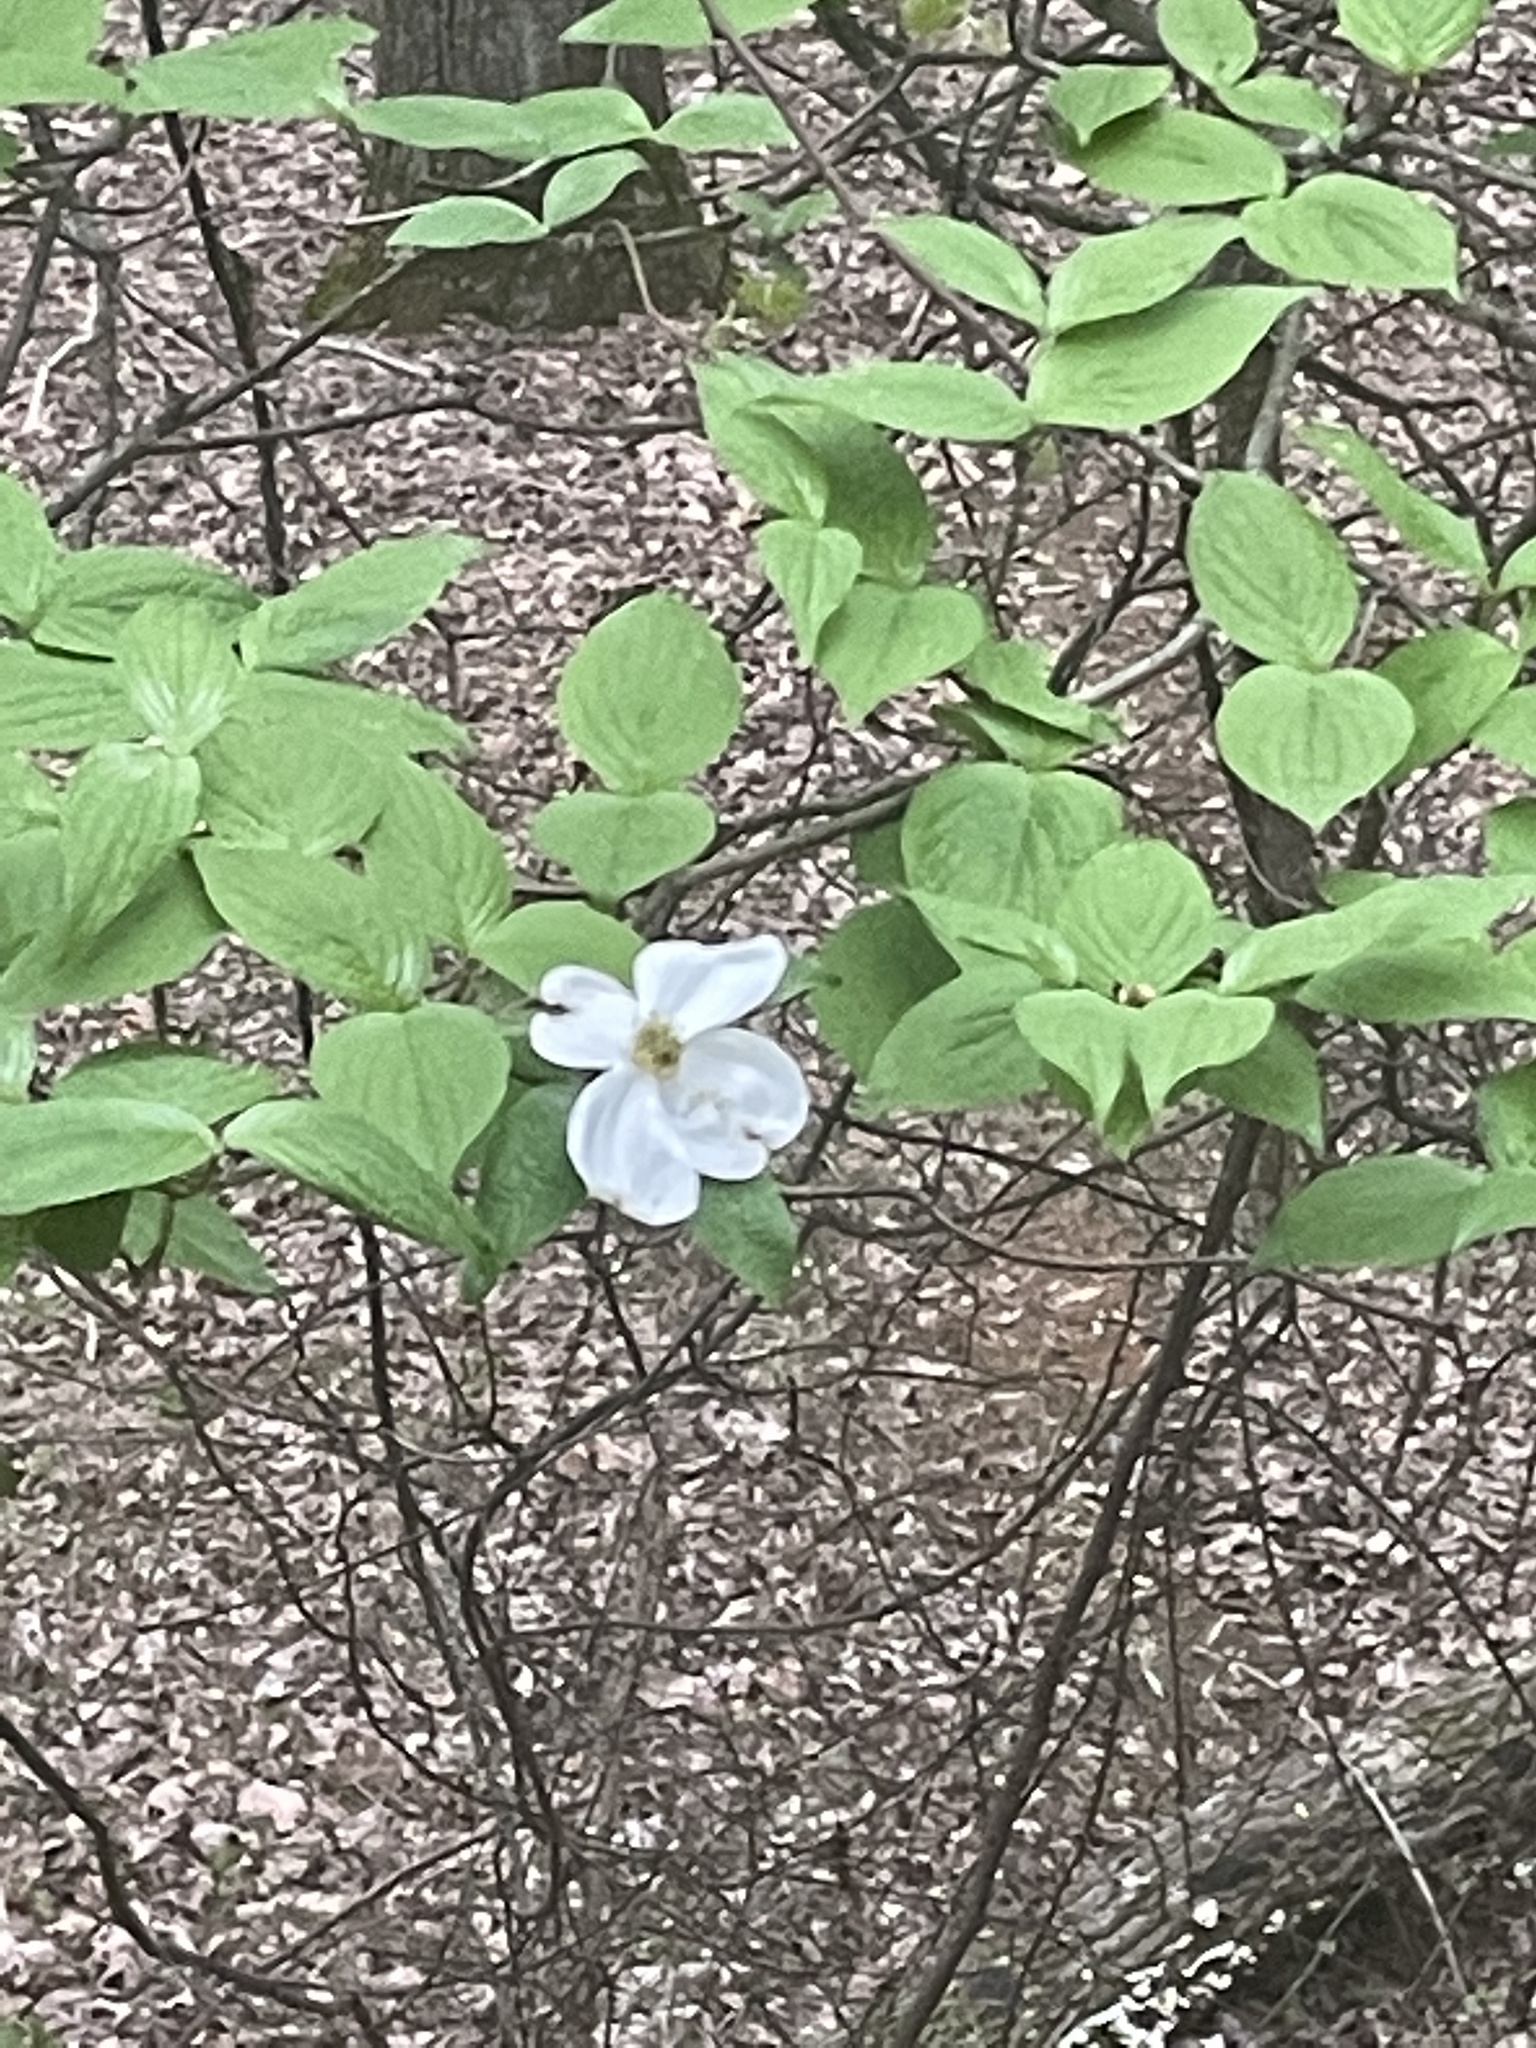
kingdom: Plantae
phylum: Tracheophyta
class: Magnoliopsida
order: Cornales
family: Cornaceae
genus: Cornus
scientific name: Cornus florida
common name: Flowering dogwood
